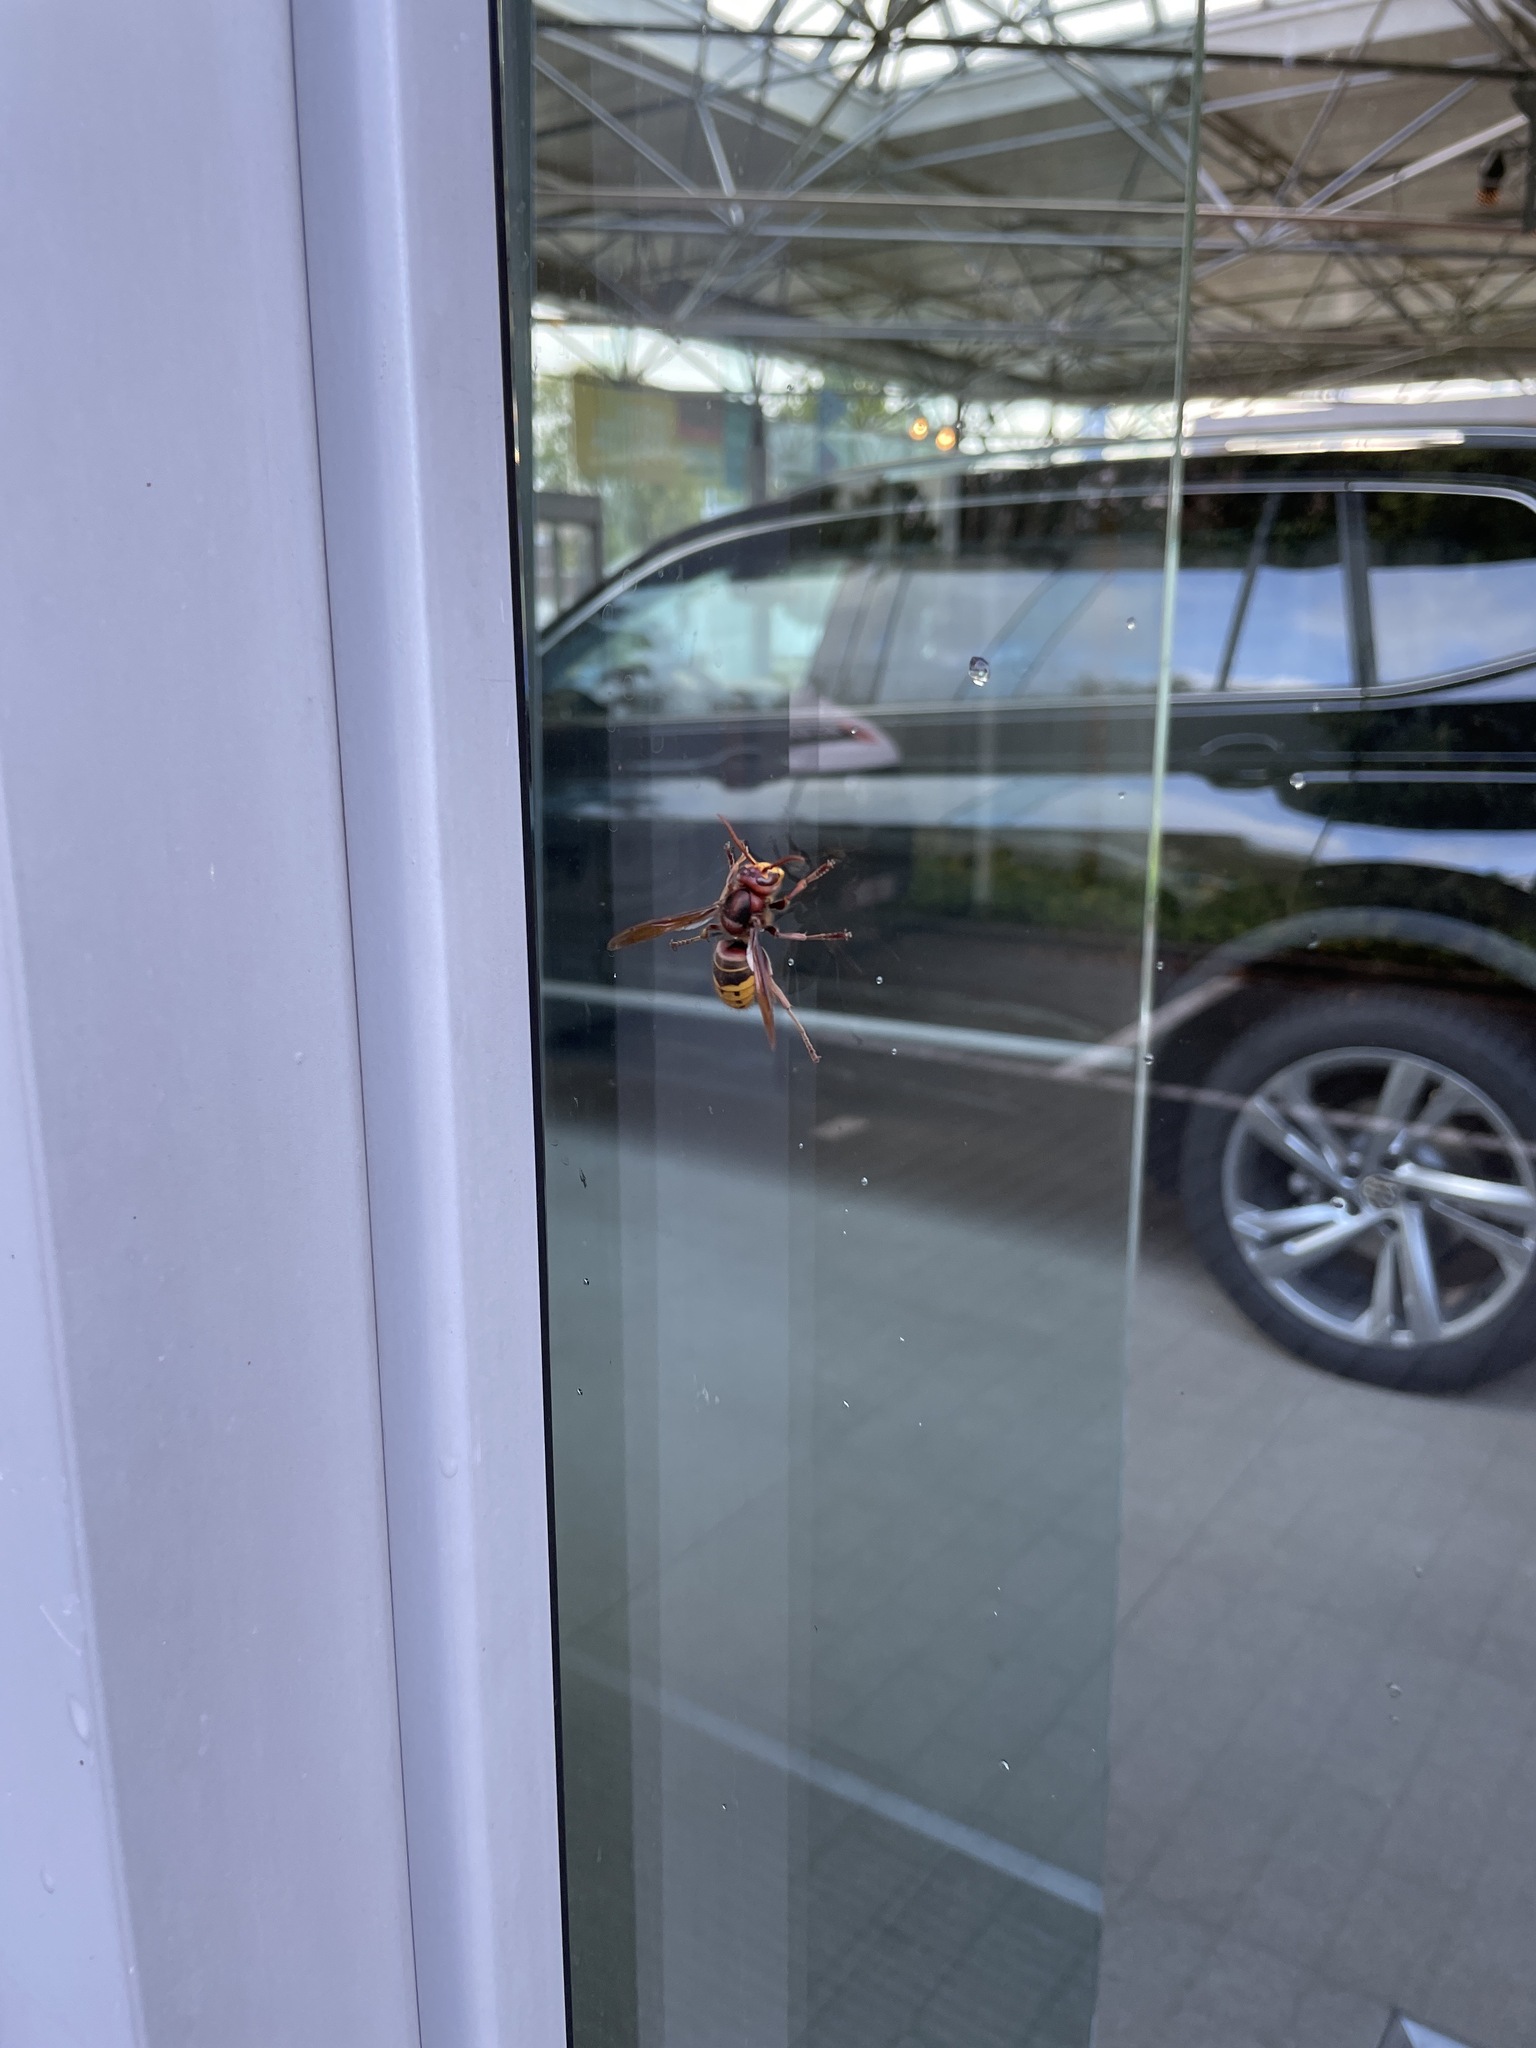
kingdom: Animalia
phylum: Arthropoda
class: Insecta
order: Hymenoptera
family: Vespidae
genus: Vespa
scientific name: Vespa crabro
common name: Hornet
